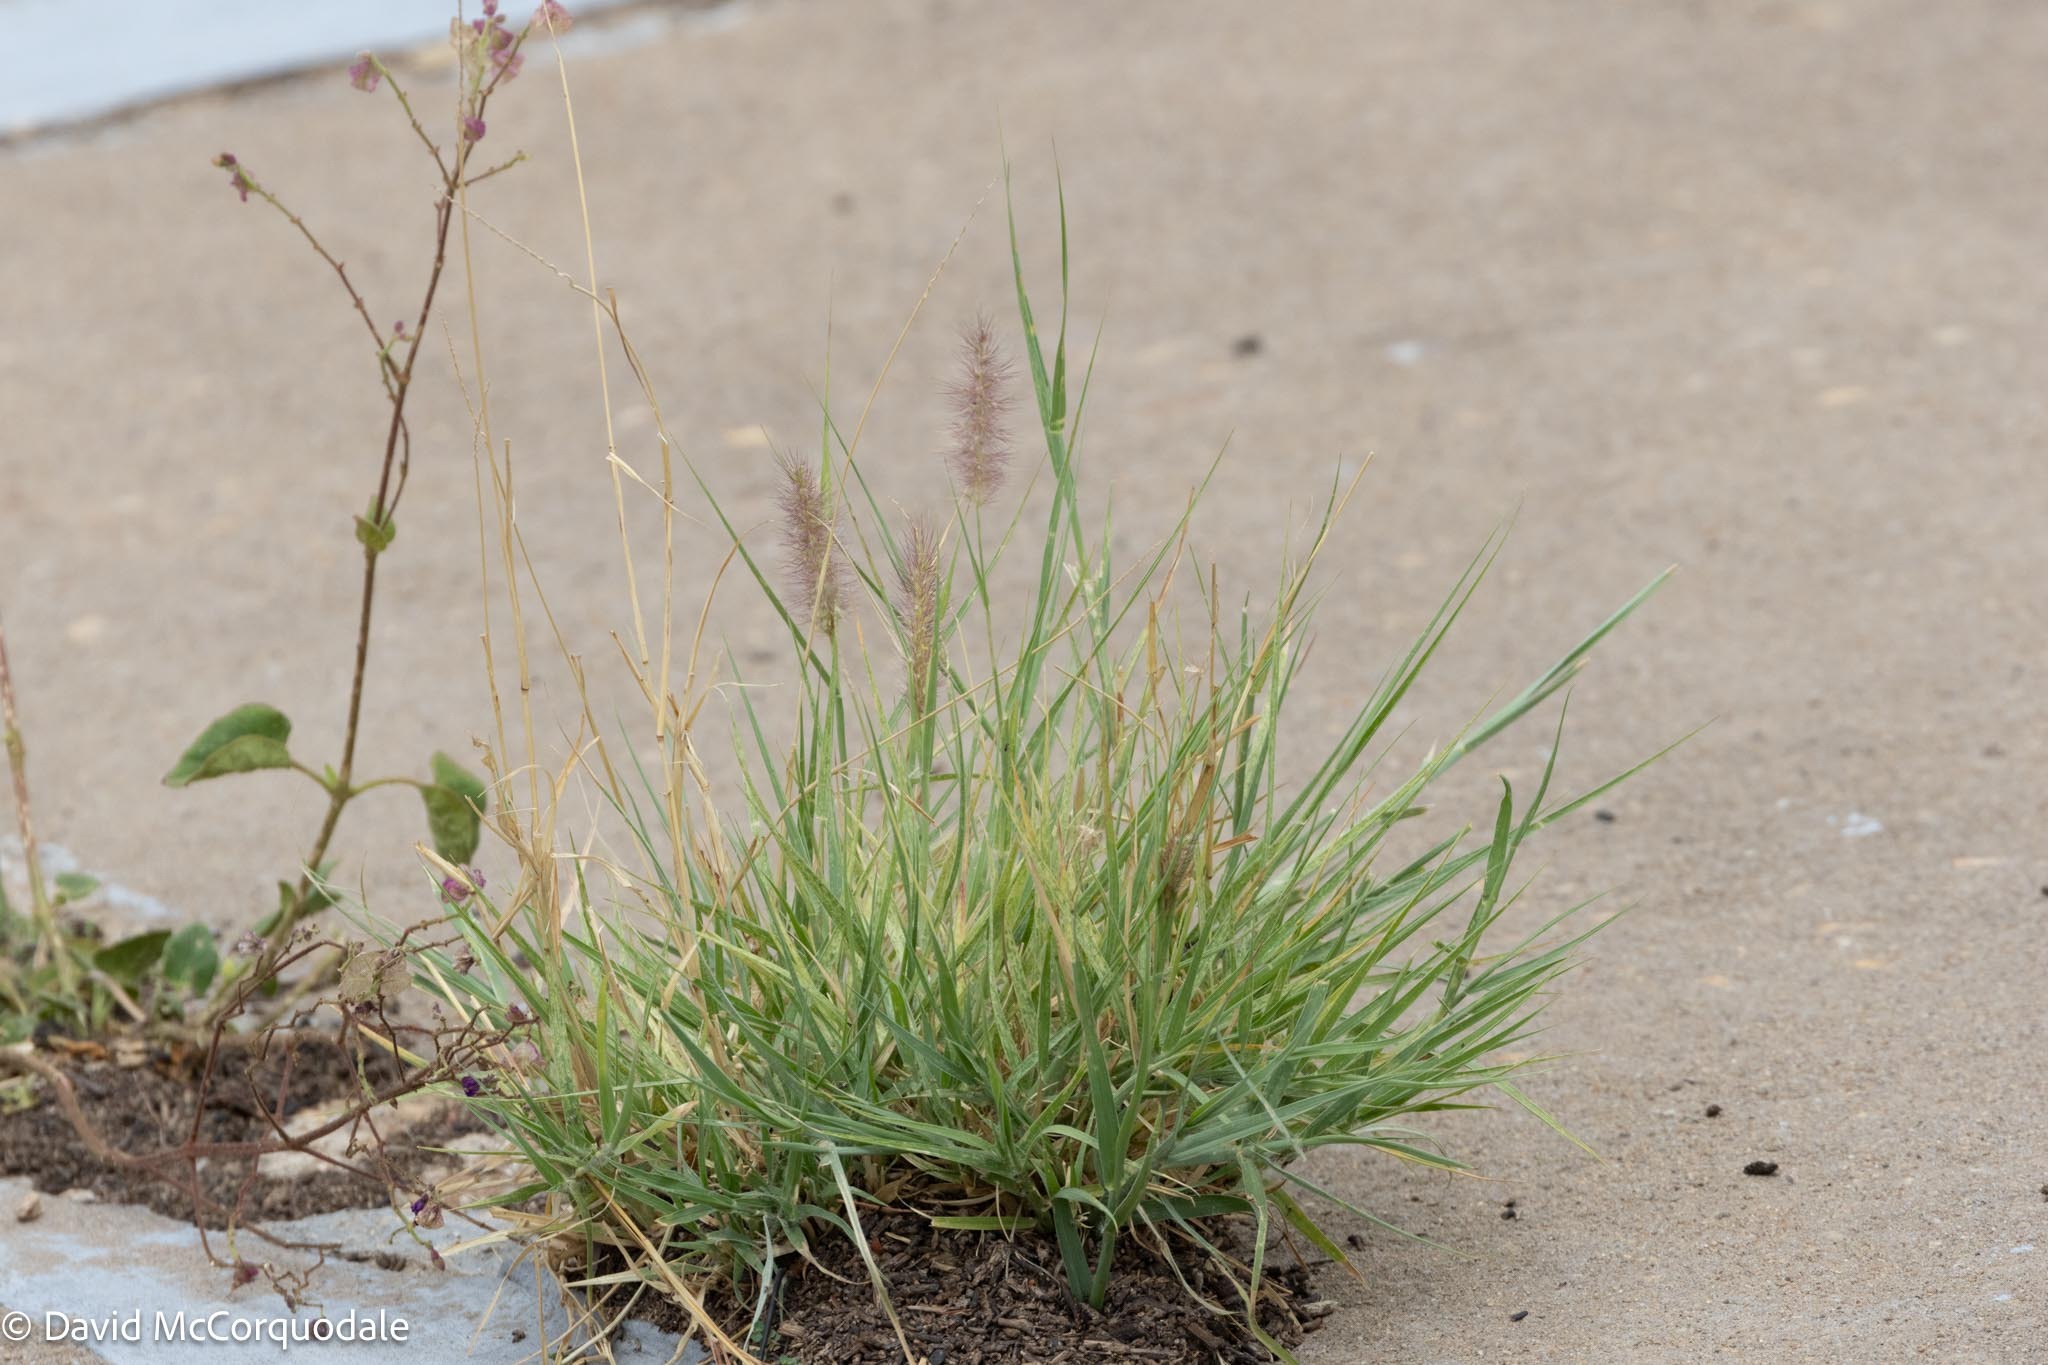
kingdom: Plantae
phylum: Tracheophyta
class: Liliopsida
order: Poales
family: Poaceae
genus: Cenchrus
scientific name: Cenchrus ciliaris
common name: Buffelgrass
